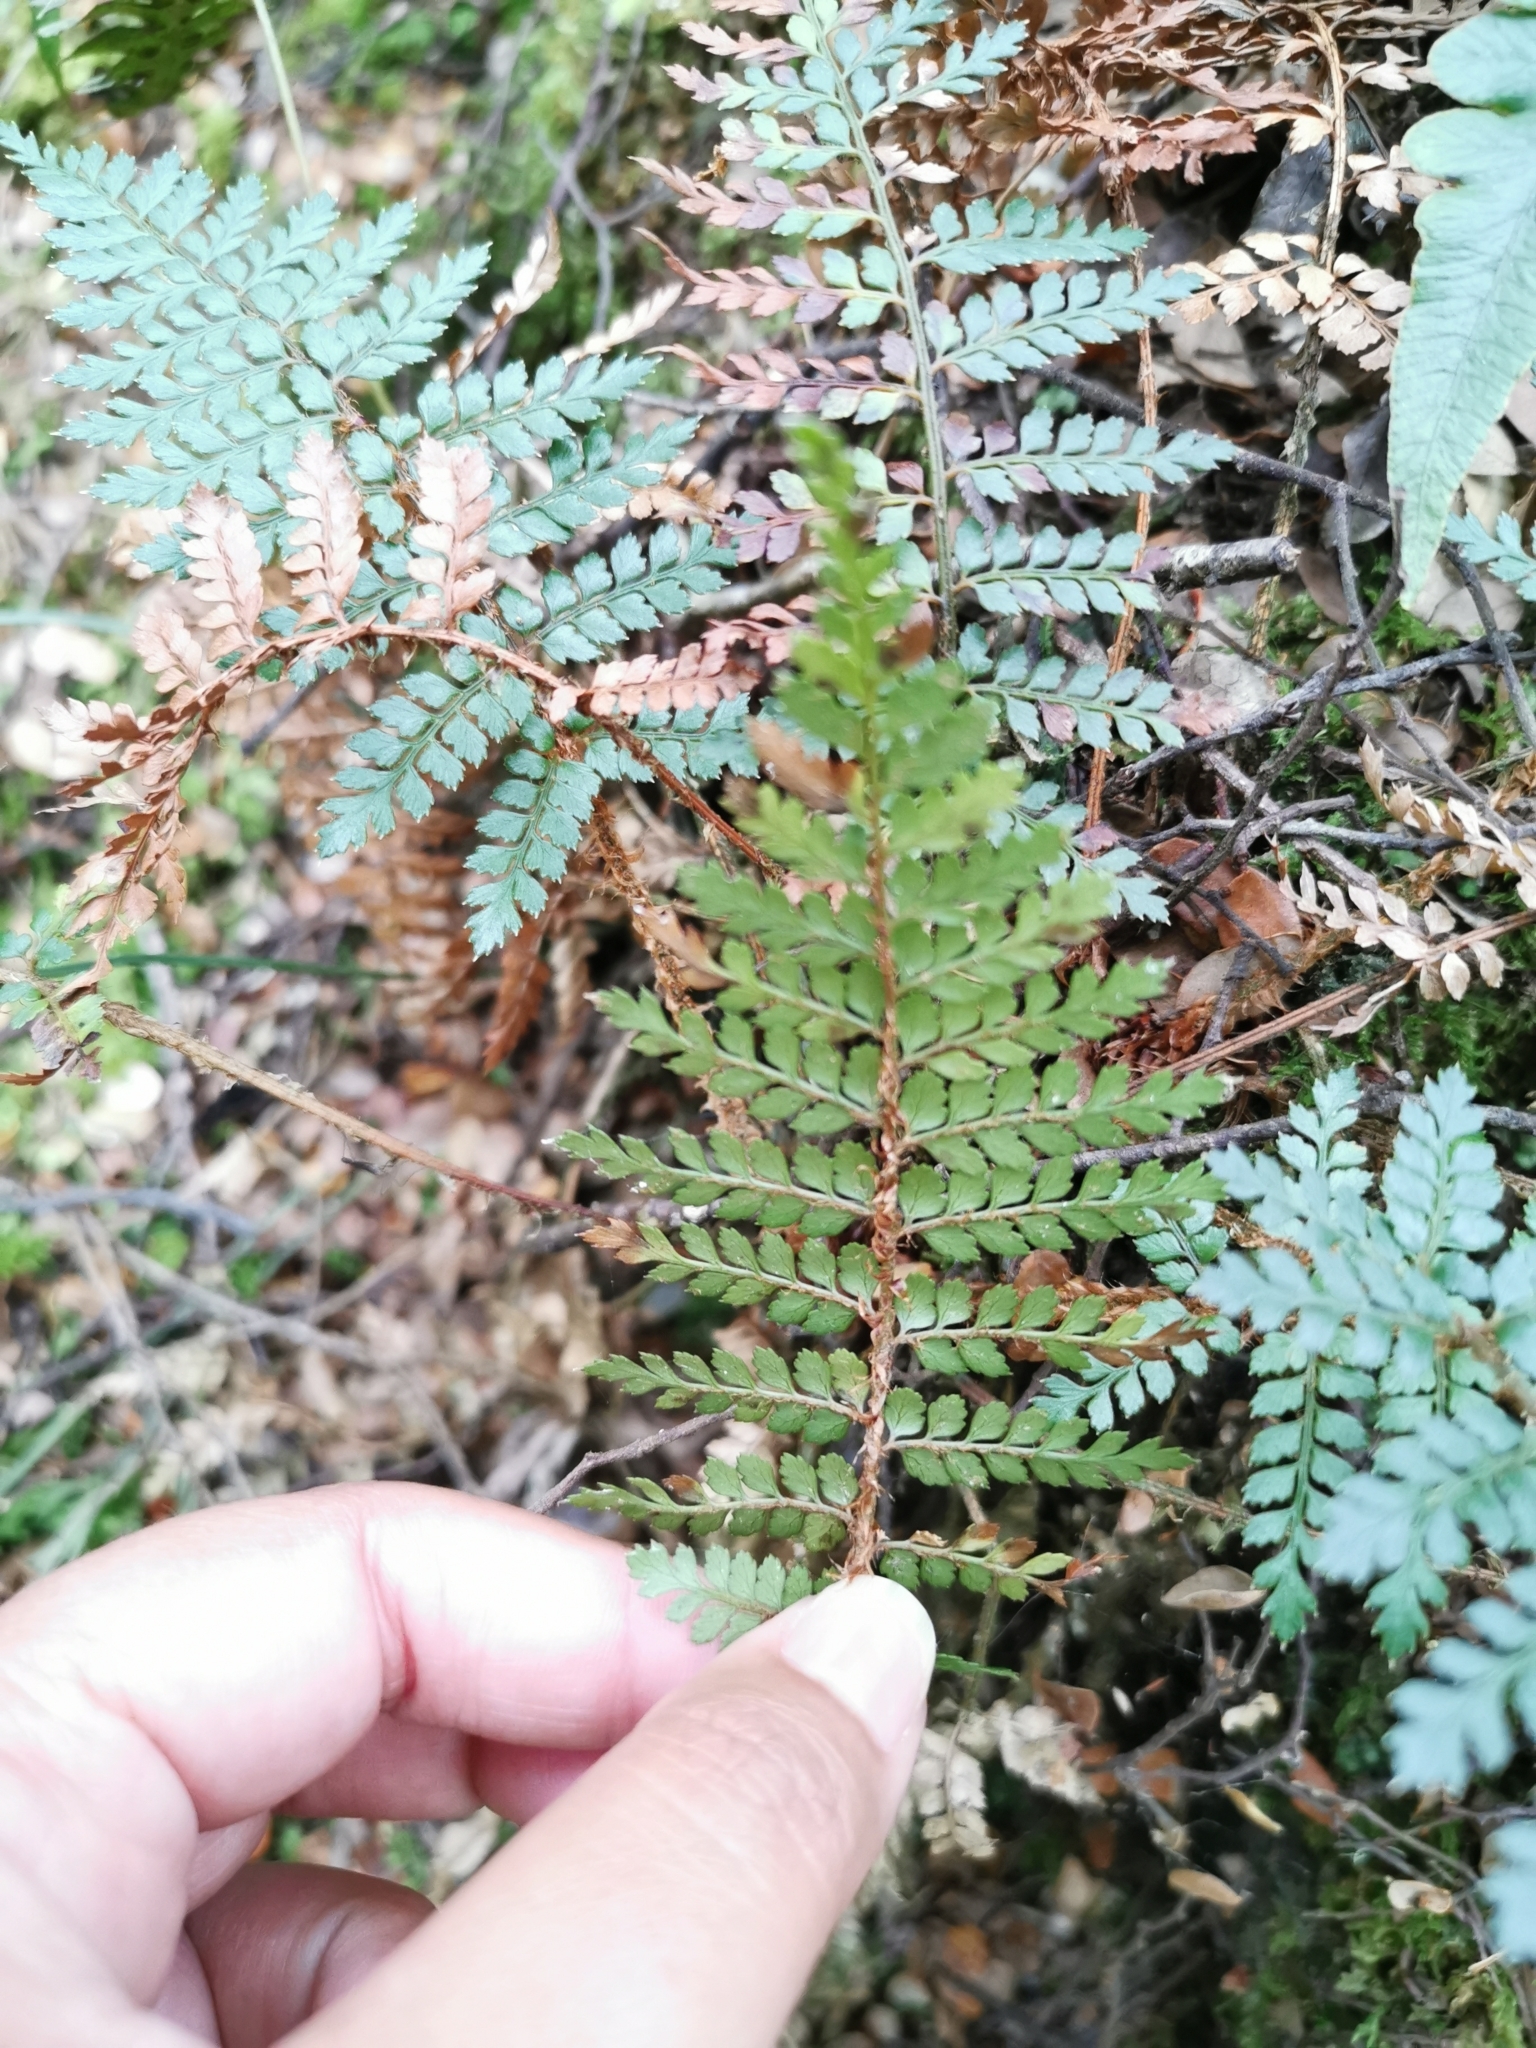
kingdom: Plantae
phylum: Tracheophyta
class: Polypodiopsida
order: Polypodiales
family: Dryopteridaceae
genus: Polystichum
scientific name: Polystichum vestitum
